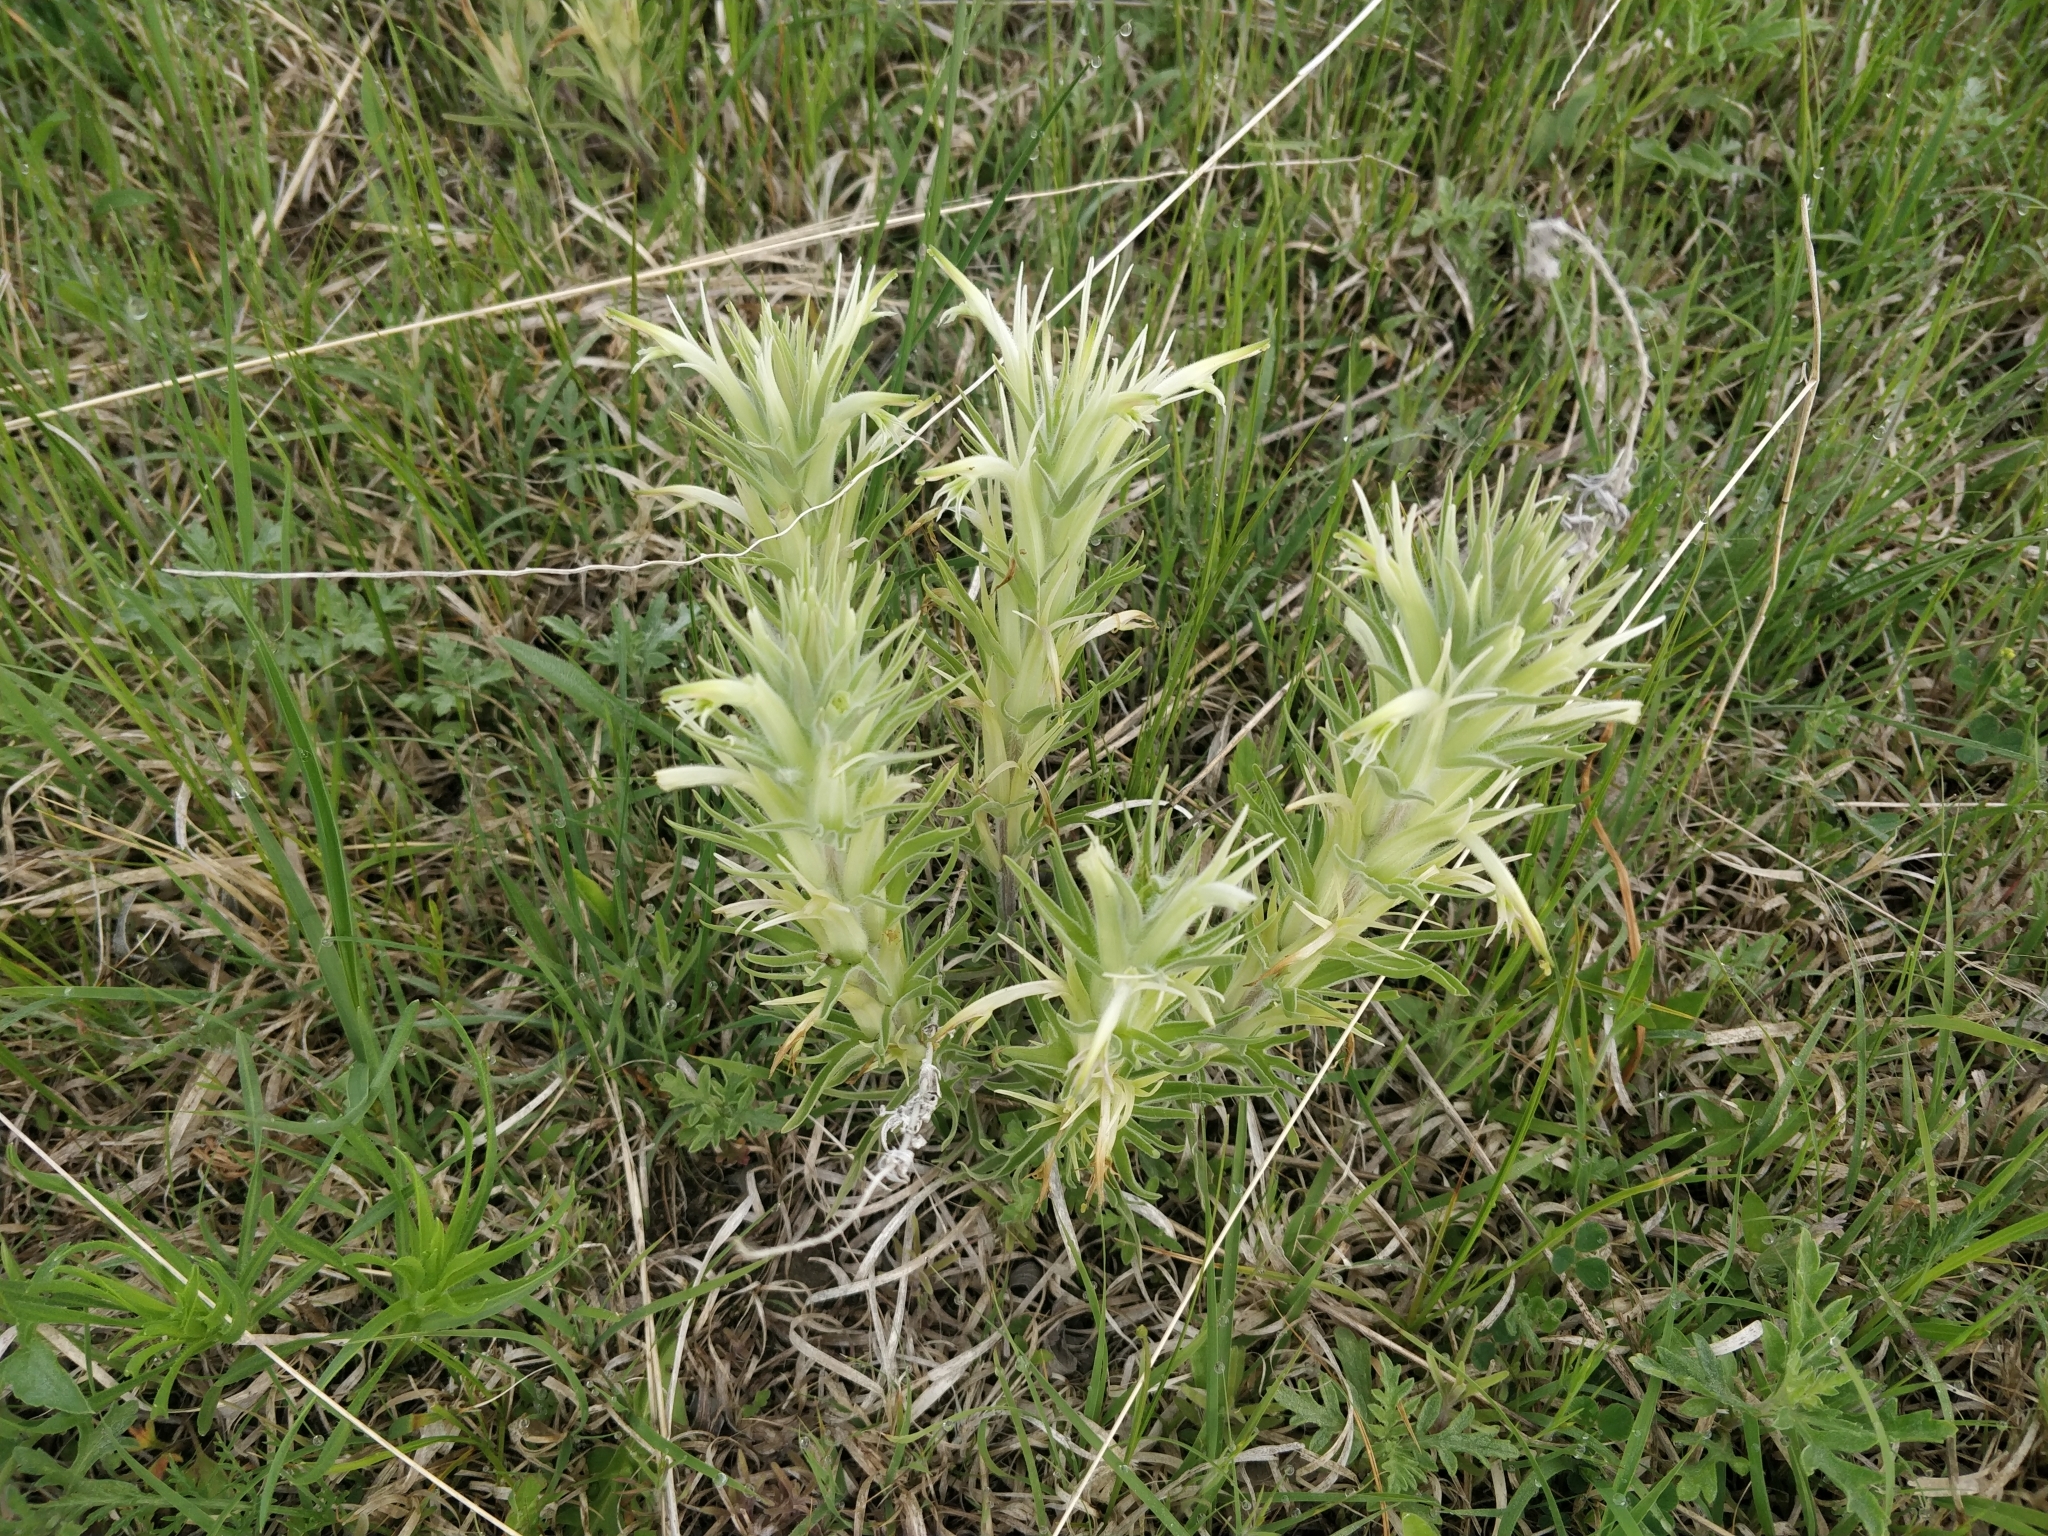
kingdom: Plantae
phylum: Tracheophyta
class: Magnoliopsida
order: Lamiales
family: Orobanchaceae
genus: Castilleja
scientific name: Castilleja sessiliflora
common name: Downy paintbrush
